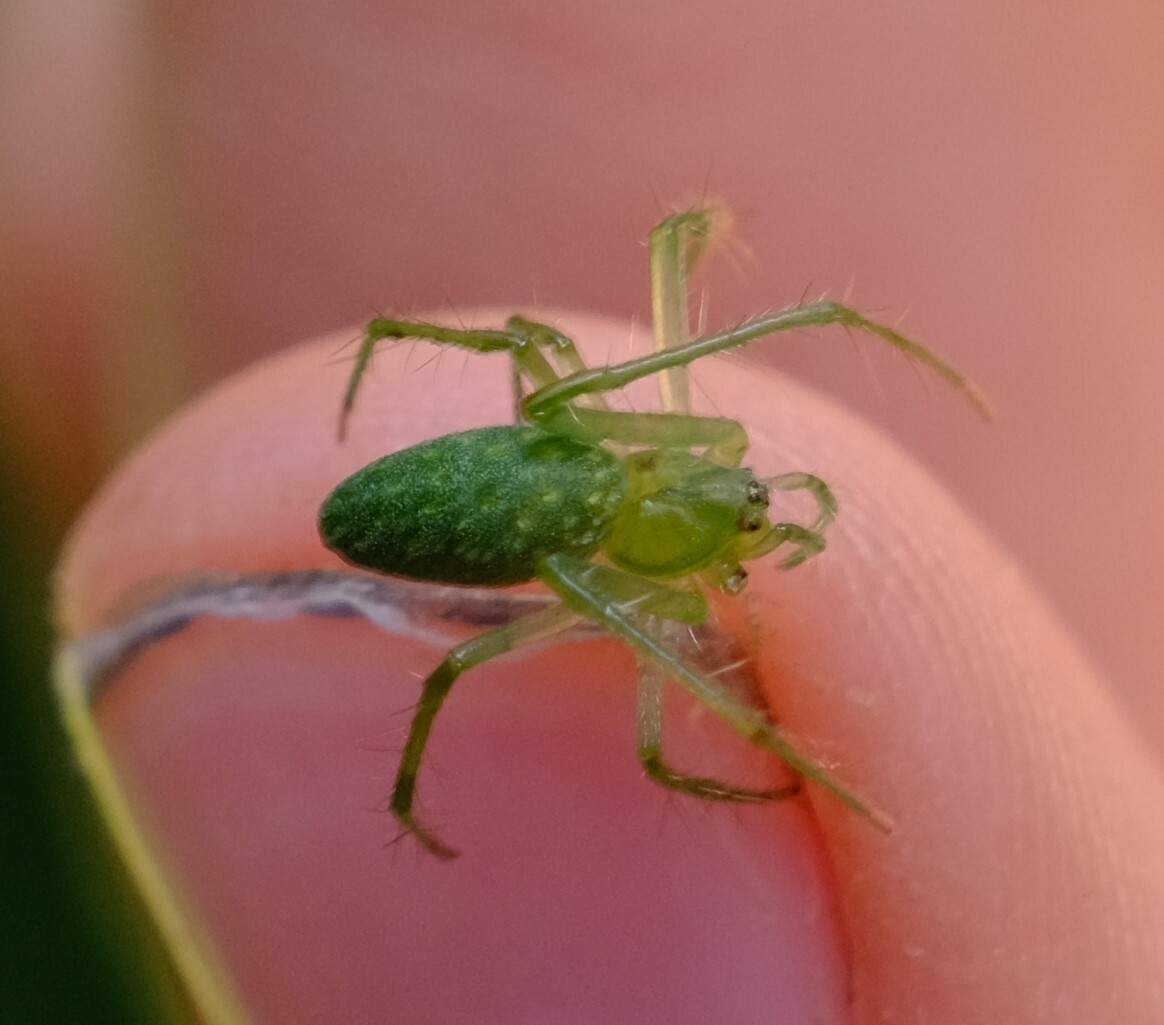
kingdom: Animalia
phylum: Arthropoda
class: Arachnida
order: Araneae
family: Araneidae
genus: Araneus
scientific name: Araneus talipedatus
